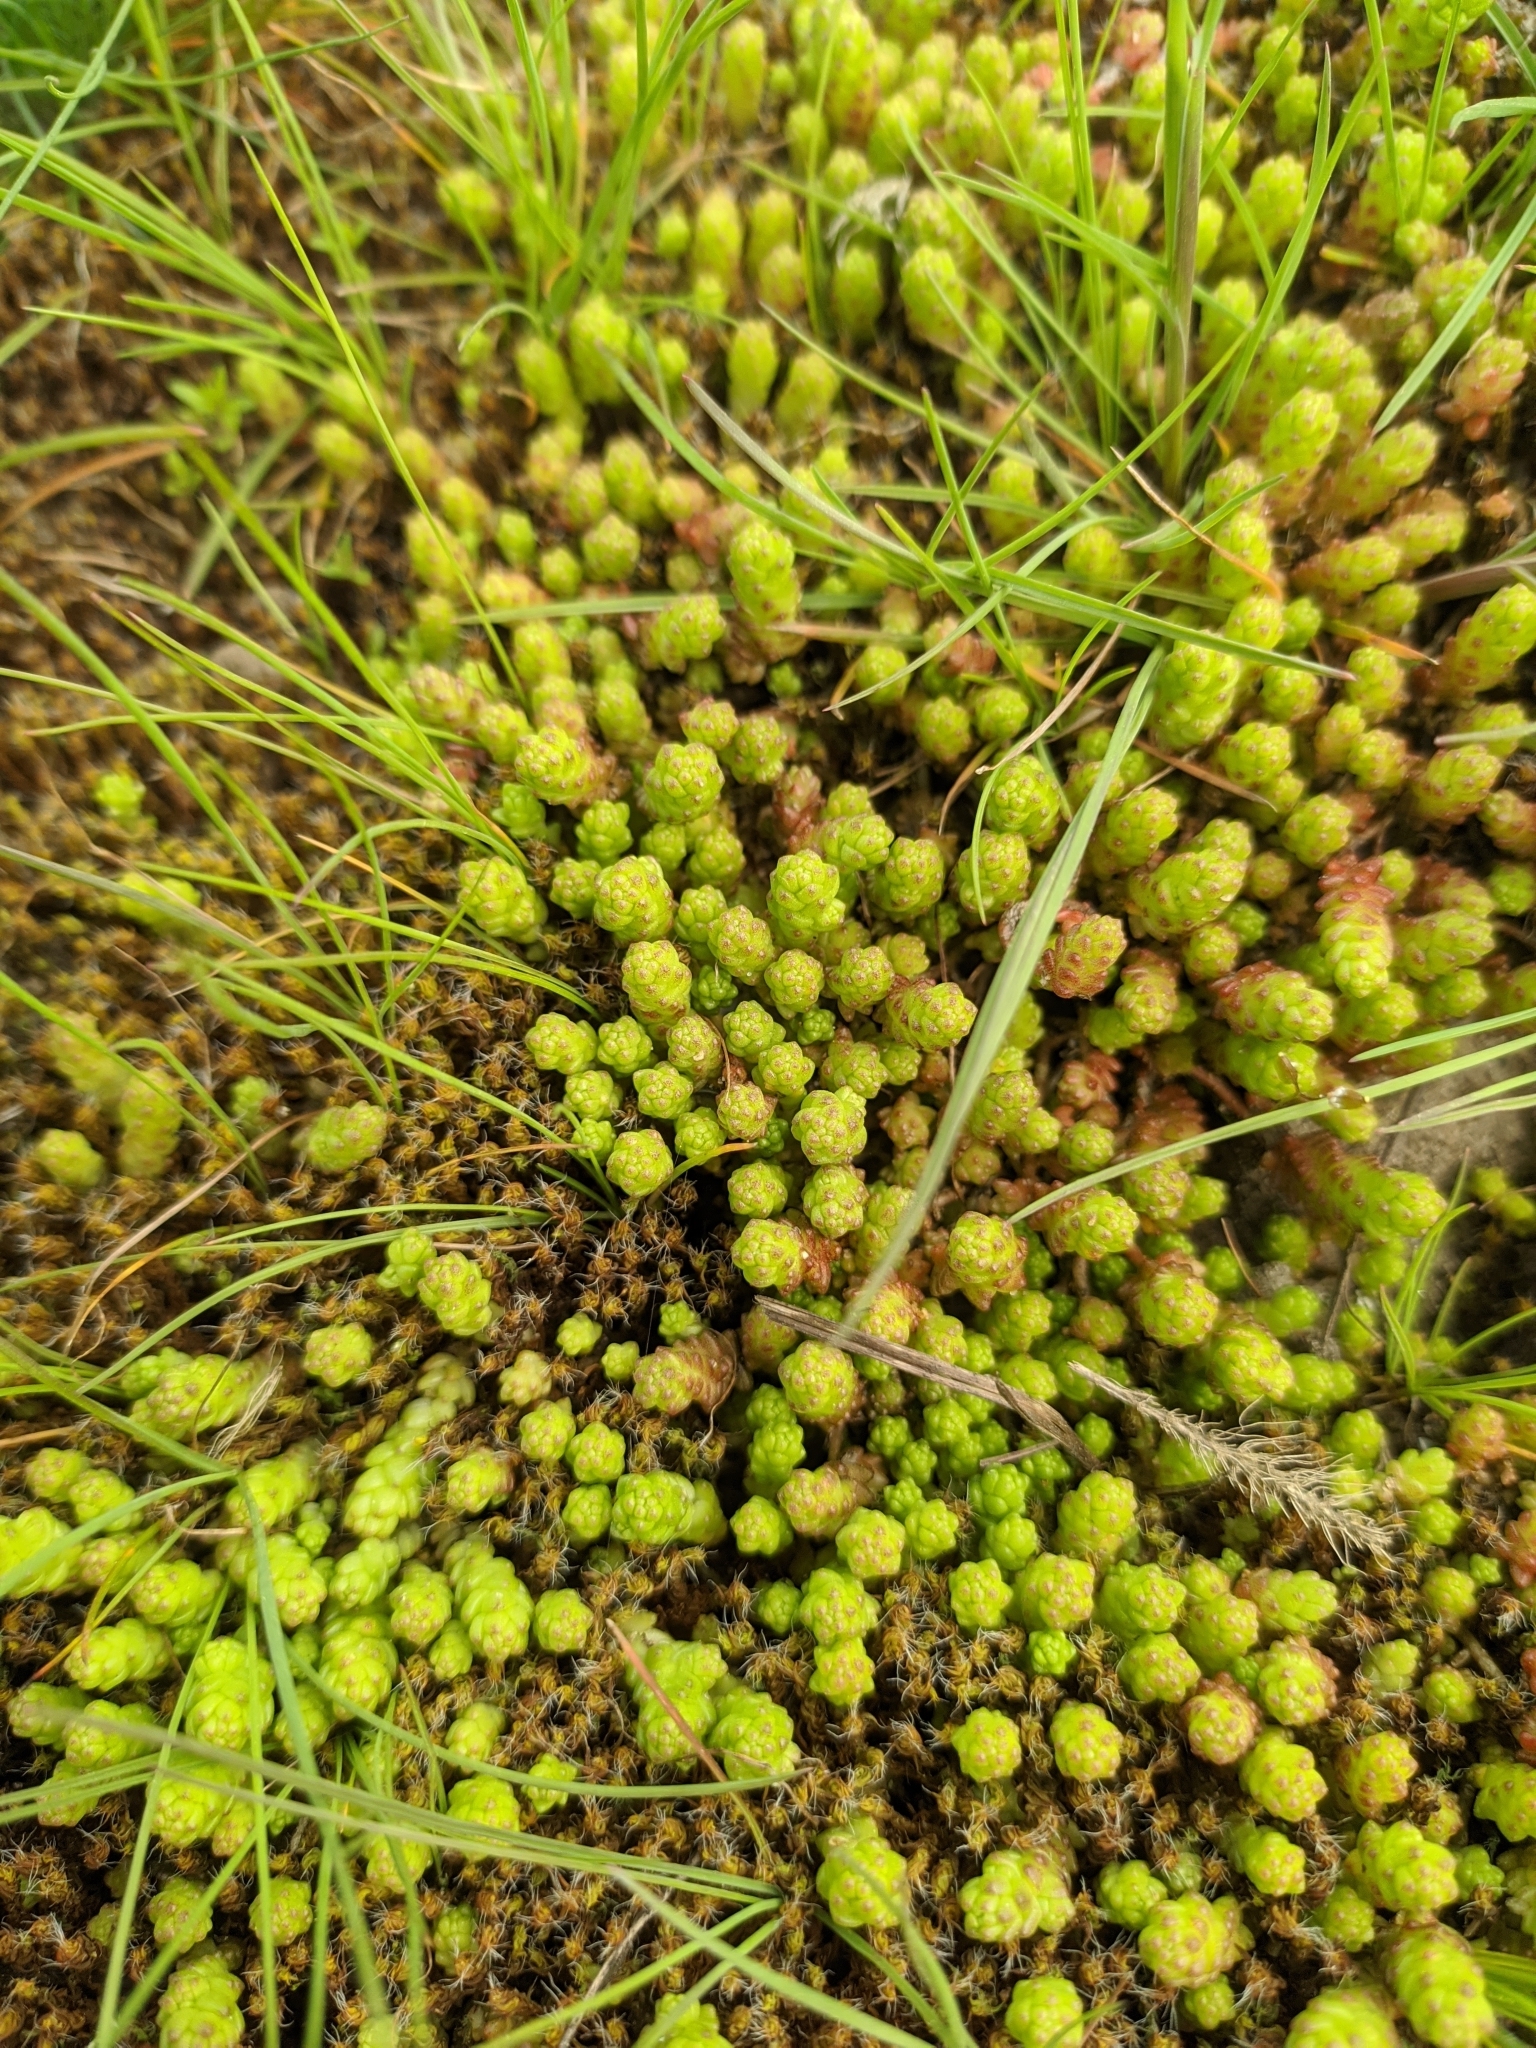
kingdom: Plantae
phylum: Tracheophyta
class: Magnoliopsida
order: Saxifragales
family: Crassulaceae
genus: Sedum
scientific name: Sedum acre
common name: Biting stonecrop
